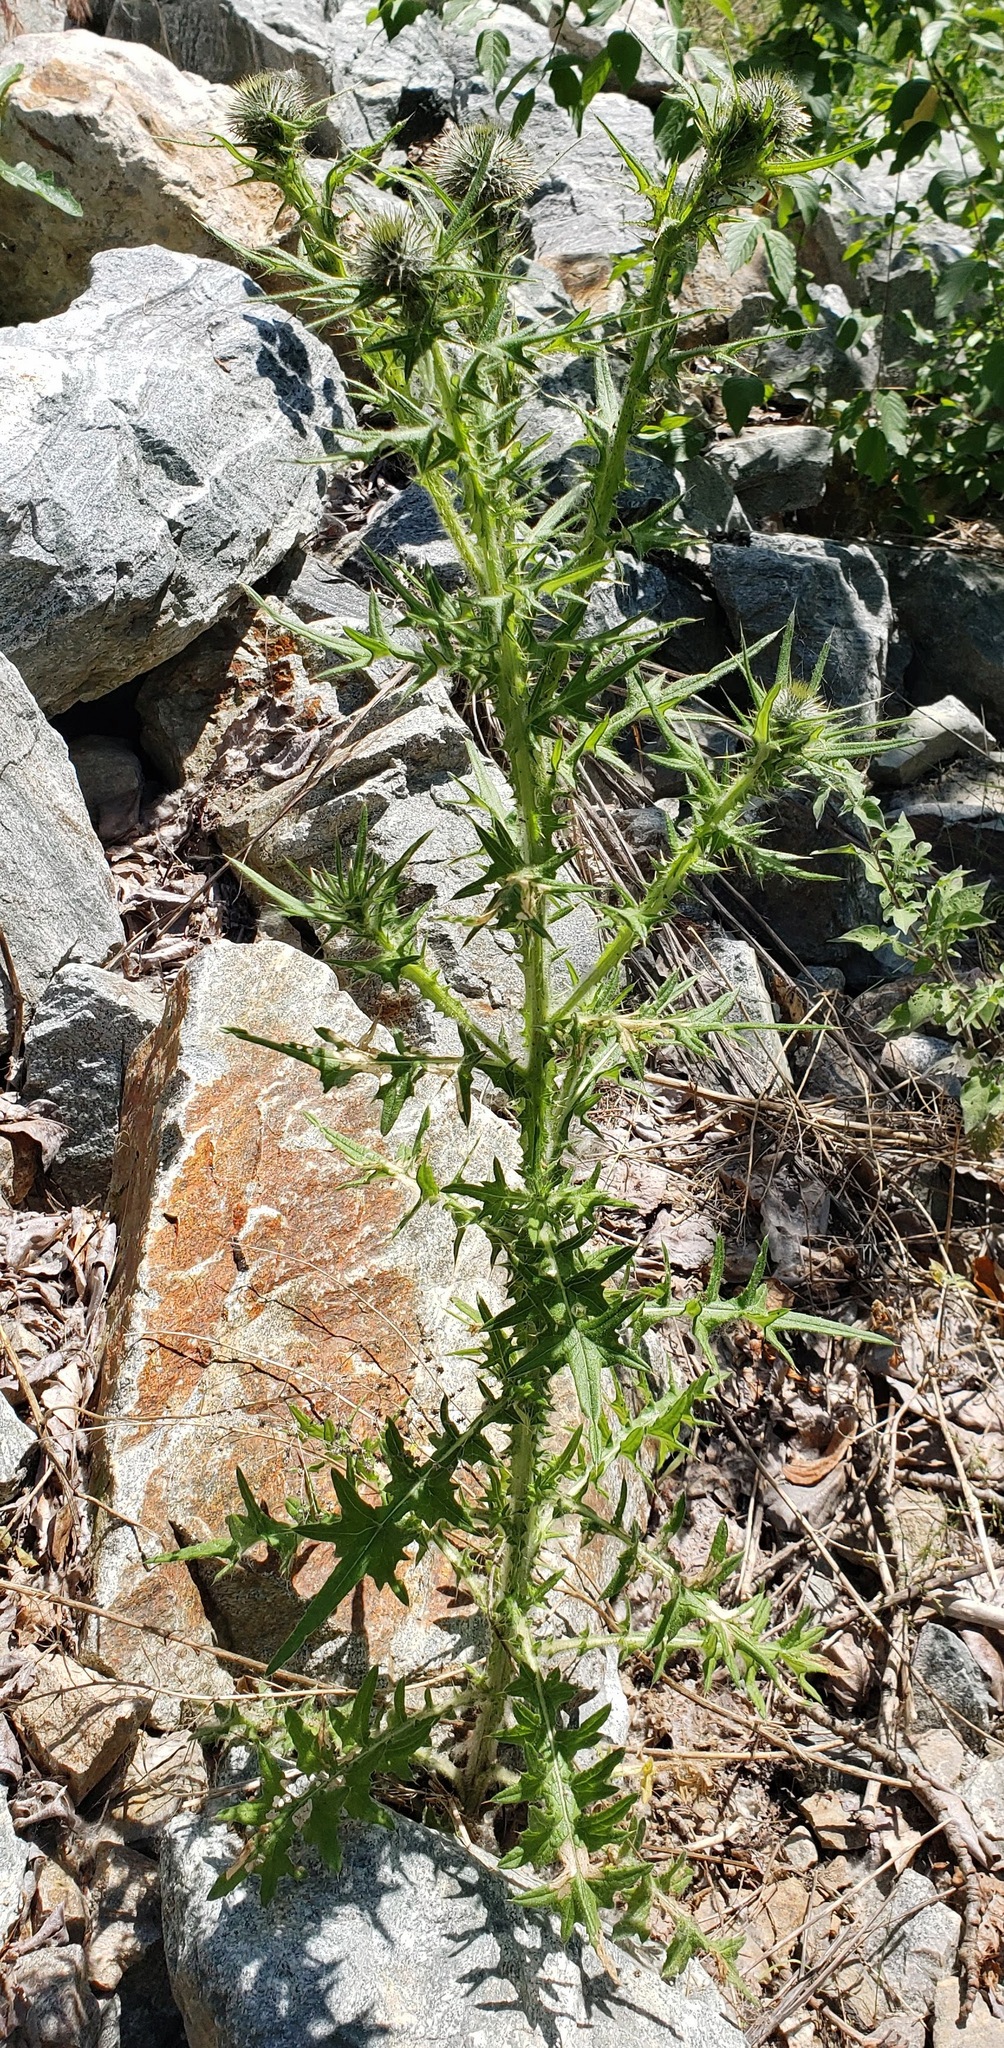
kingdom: Plantae
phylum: Tracheophyta
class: Magnoliopsida
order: Asterales
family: Asteraceae
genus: Cirsium
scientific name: Cirsium vulgare
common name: Bull thistle
